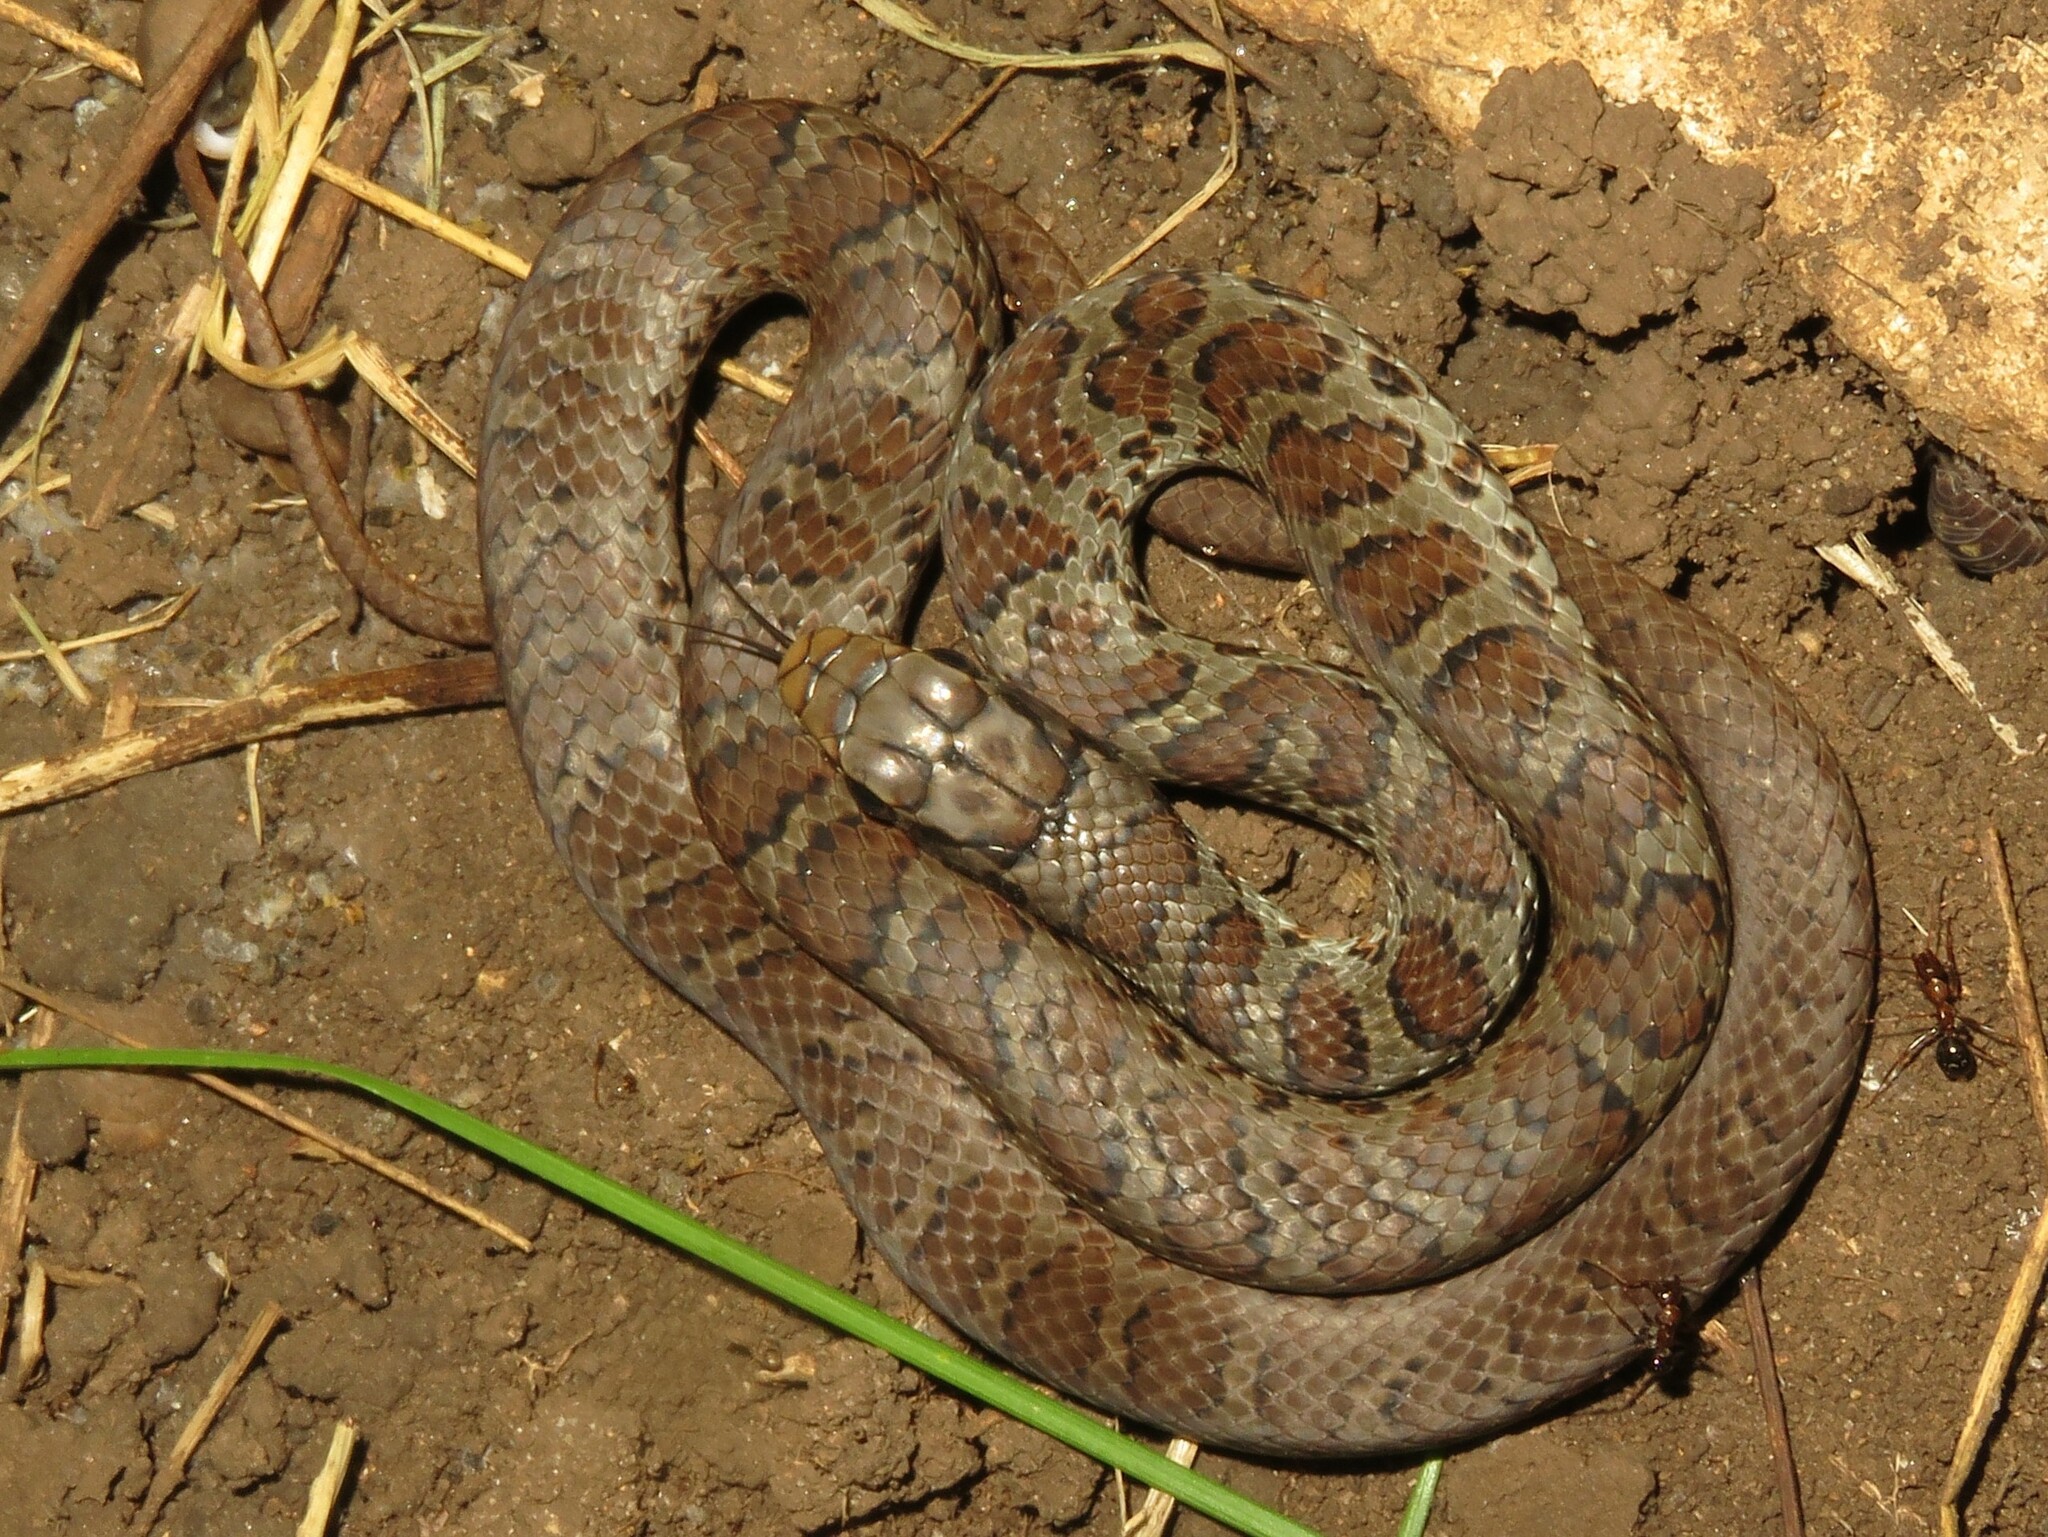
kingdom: Animalia
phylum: Chordata
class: Squamata
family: Colubridae
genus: Coluber
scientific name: Coluber constrictor
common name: Eastern racer
